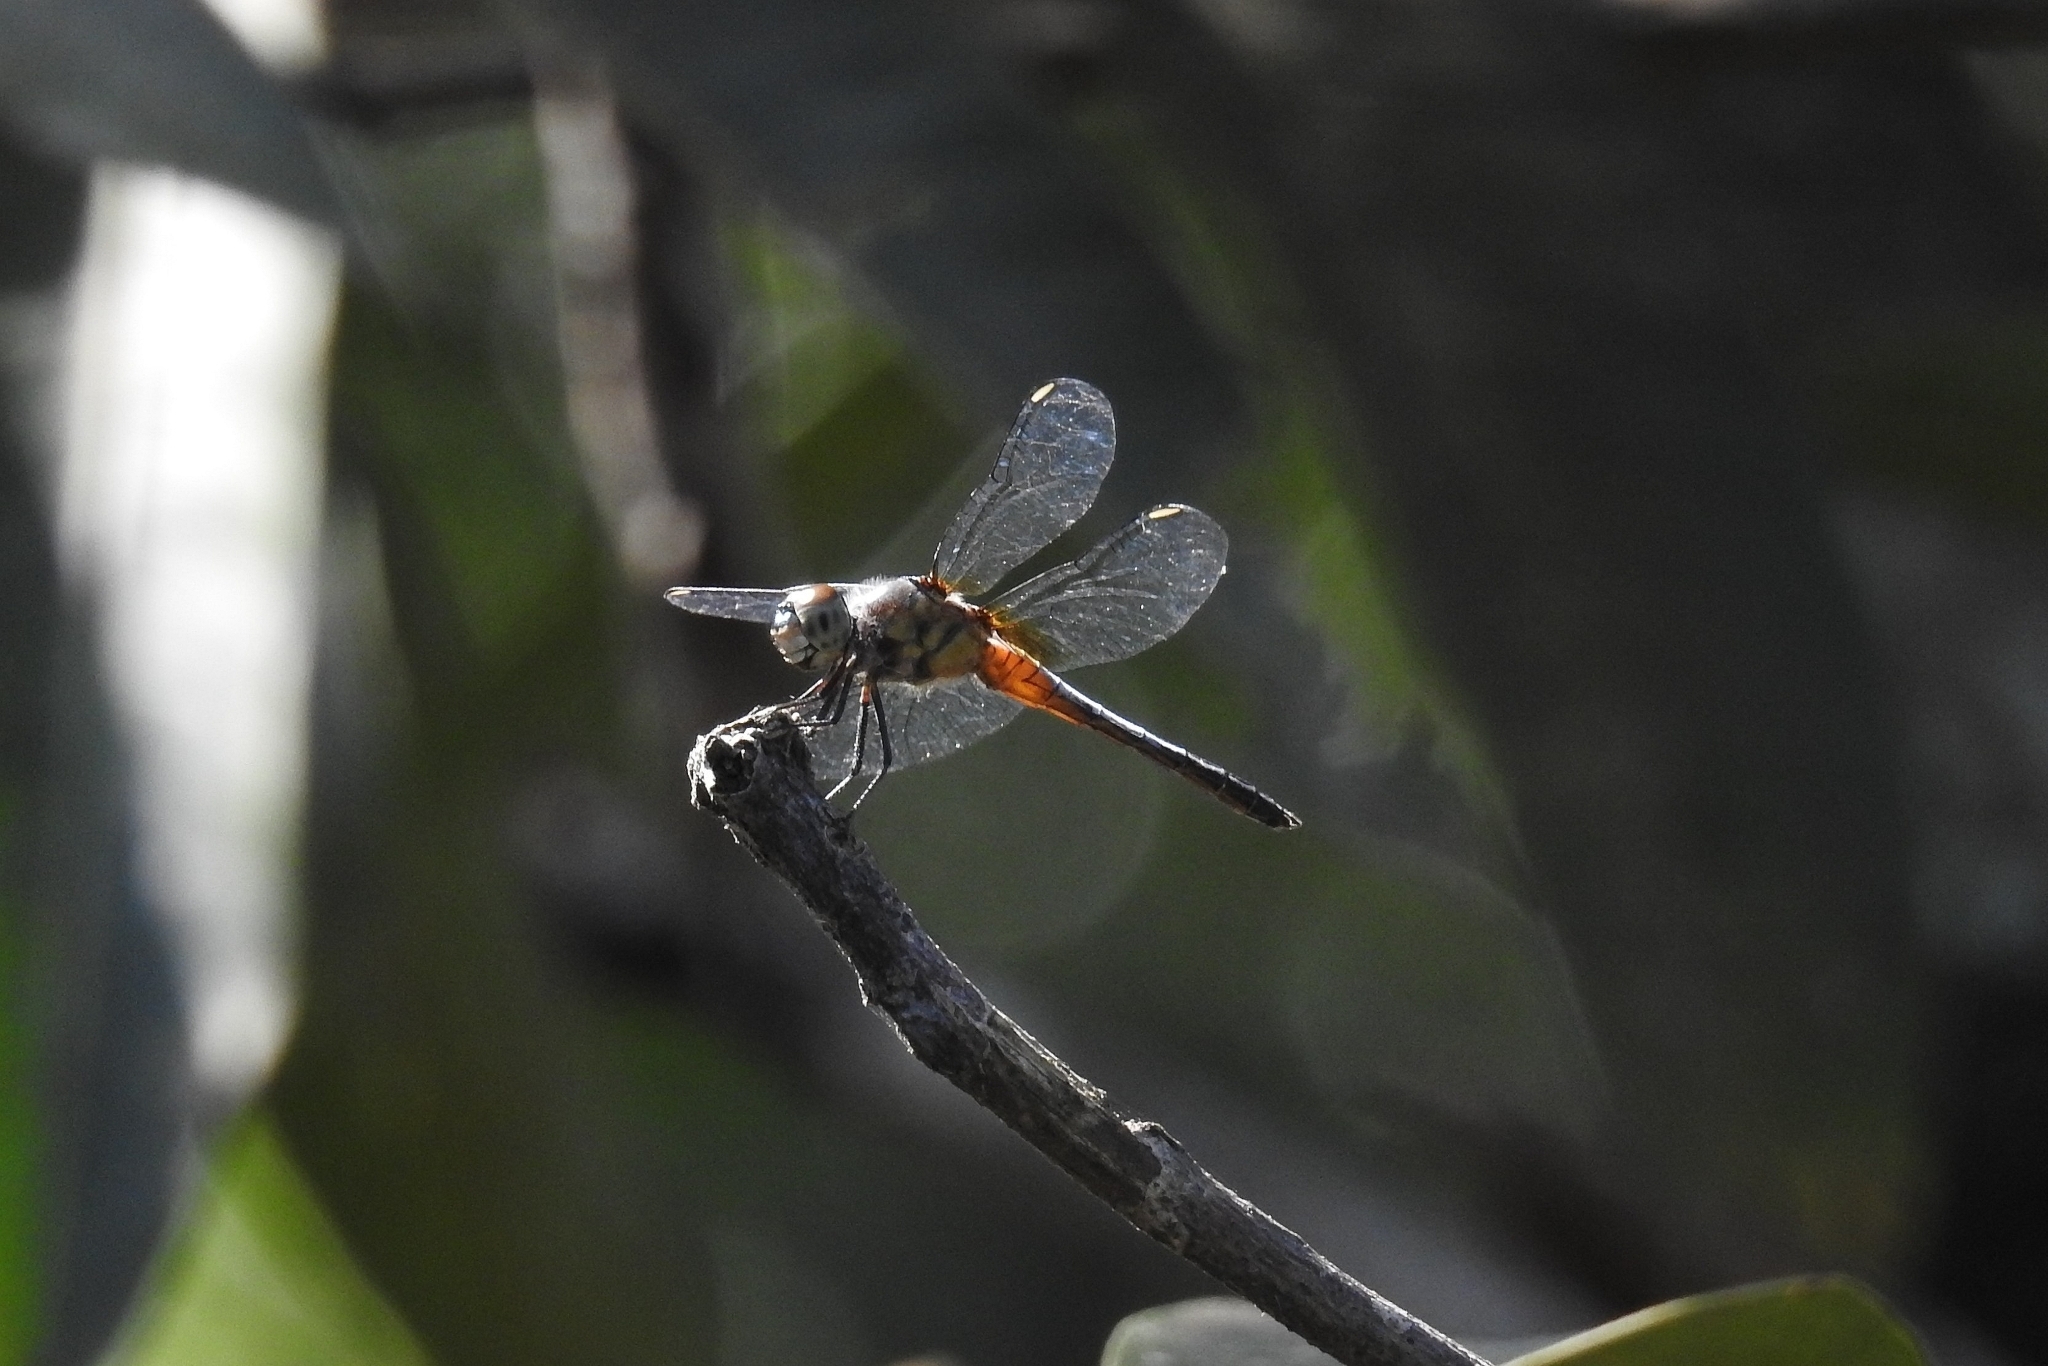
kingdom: Animalia
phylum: Arthropoda
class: Insecta
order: Odonata
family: Libellulidae
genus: Brachydiplax
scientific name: Brachydiplax chalybea
